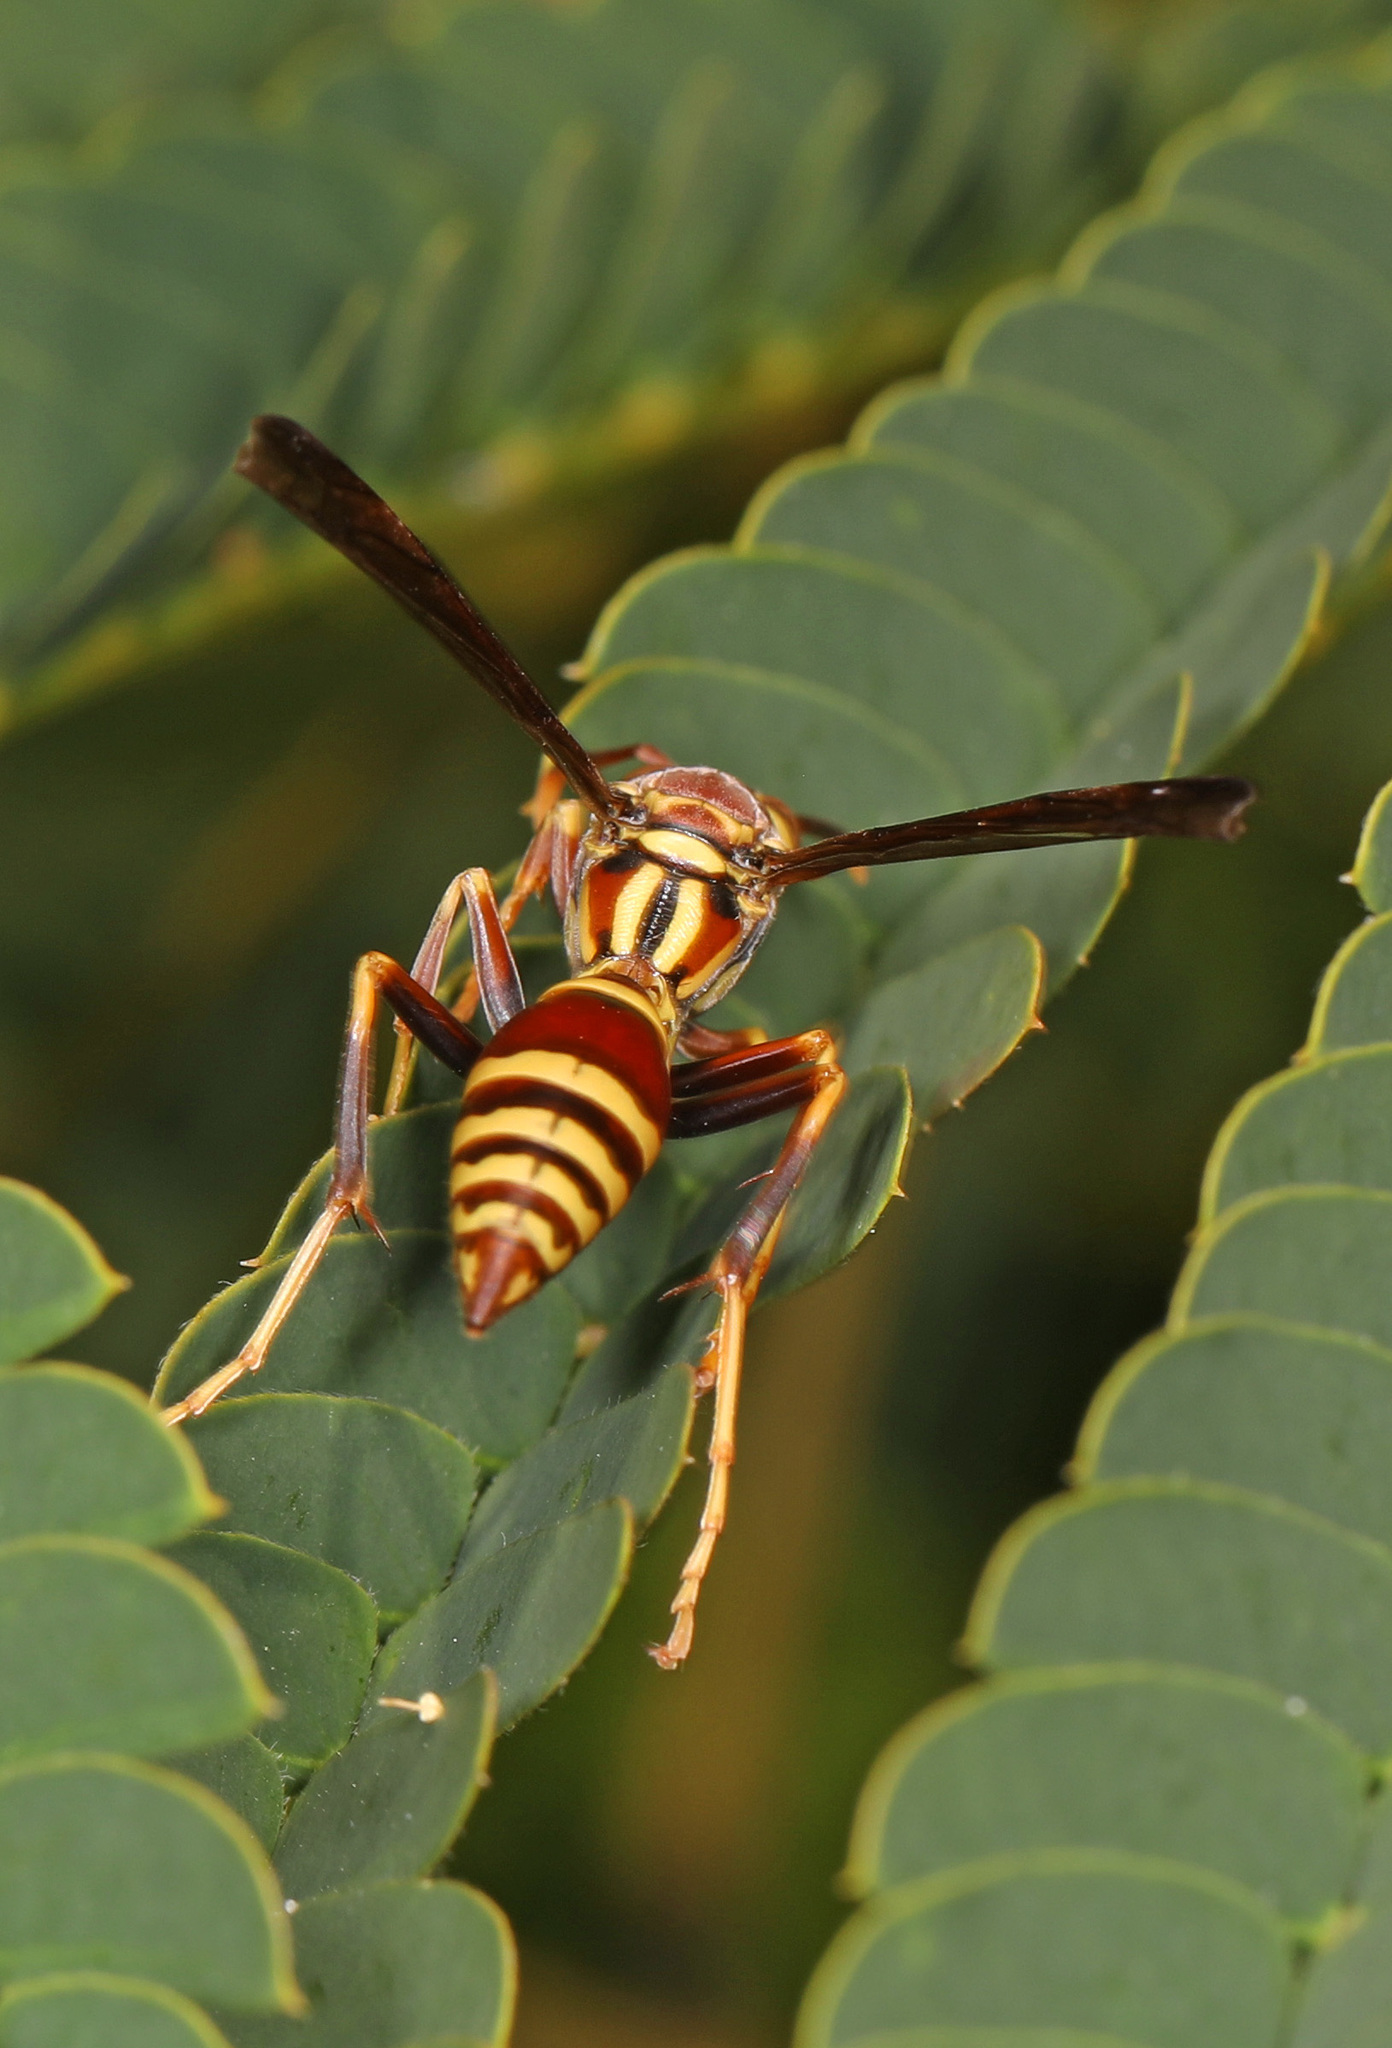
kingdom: Animalia
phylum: Arthropoda
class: Insecta
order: Hymenoptera
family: Eumenidae
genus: Polistes
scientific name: Polistes exclamans
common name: Paper wasp
